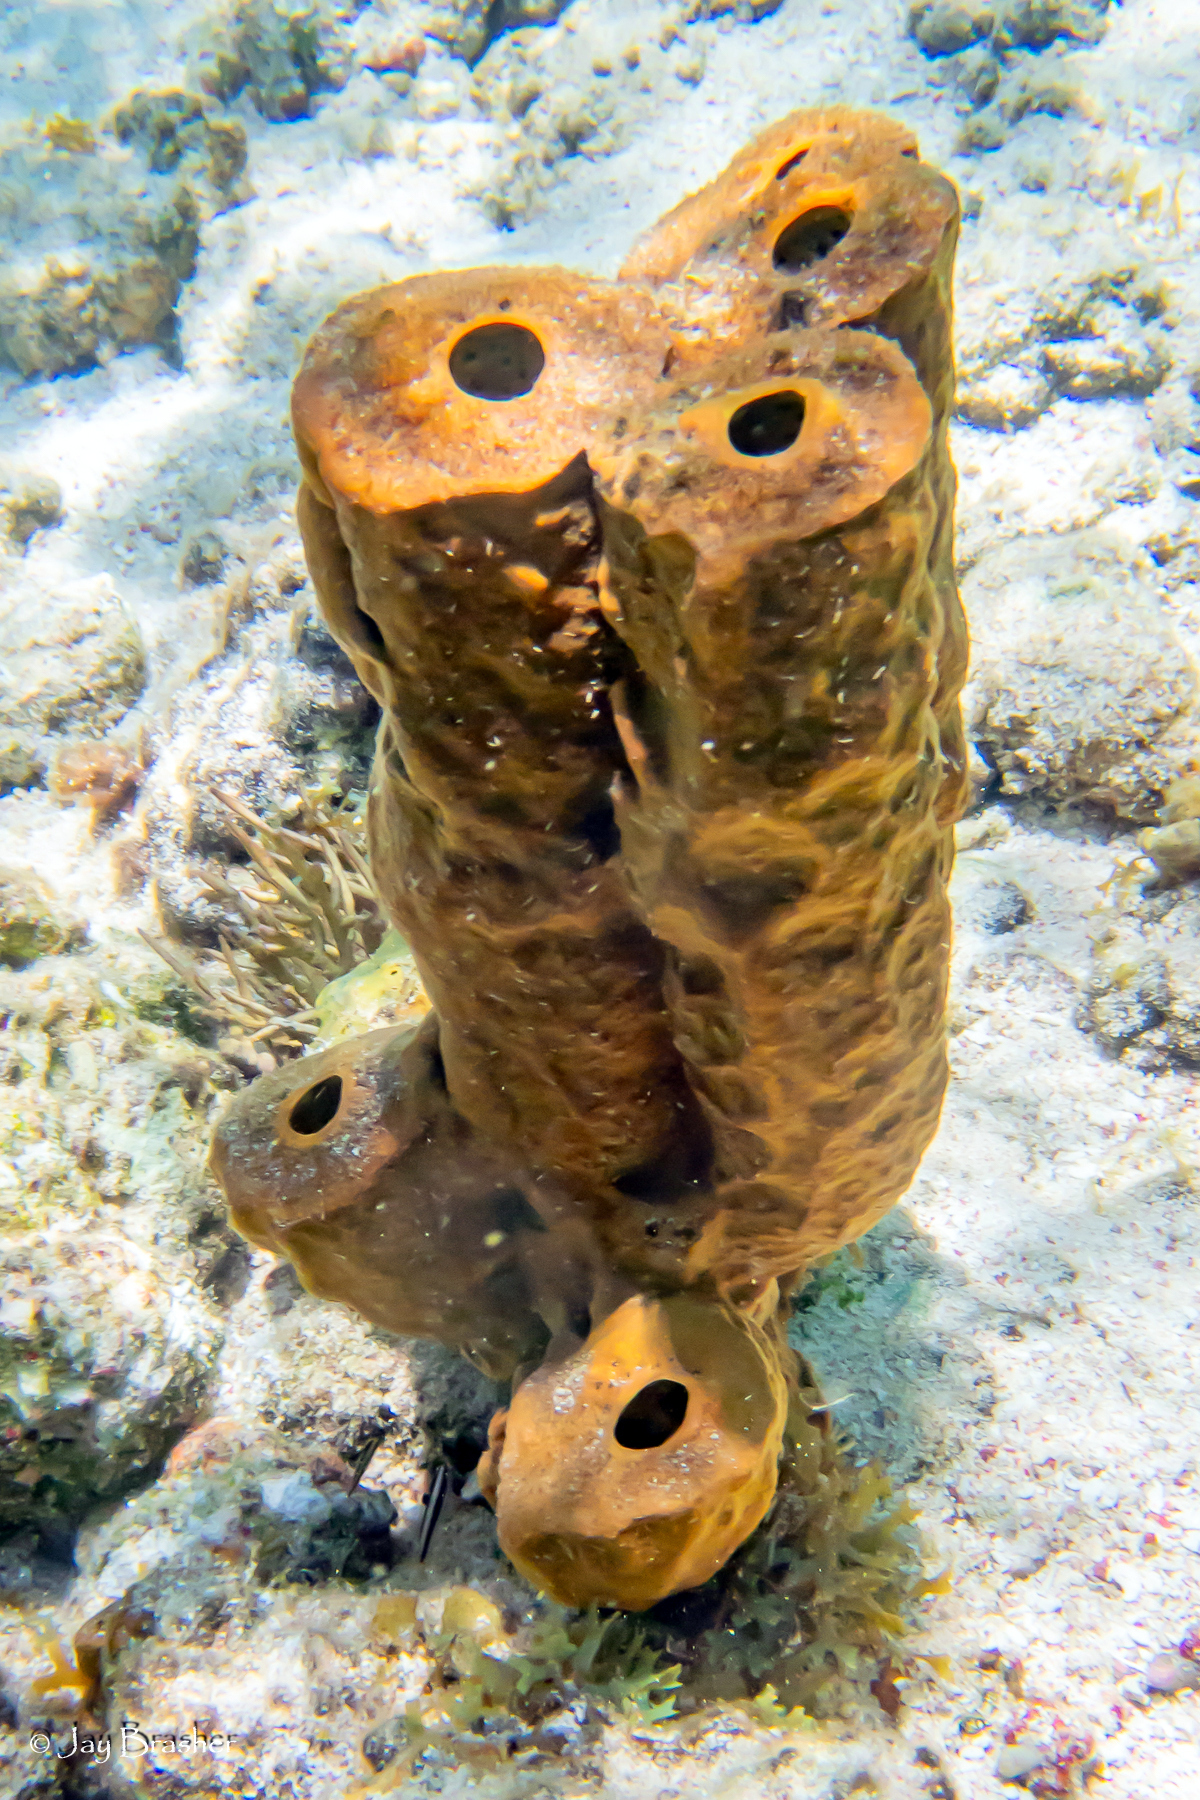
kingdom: Animalia
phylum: Porifera
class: Demospongiae
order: Verongiida
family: Aplysinidae
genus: Aplysina
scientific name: Aplysina fistularis
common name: Candle sponge
